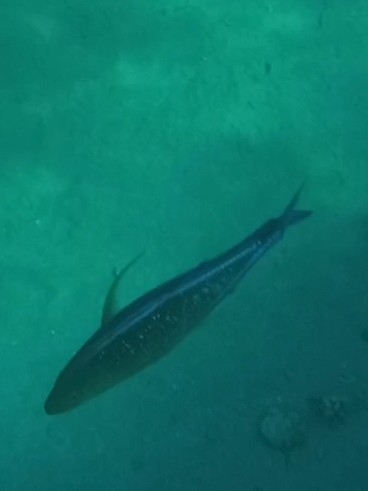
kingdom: Animalia
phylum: Chordata
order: Perciformes
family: Carangidae
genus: Caranx
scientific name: Caranx melampygus
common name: Bluefin trevally
